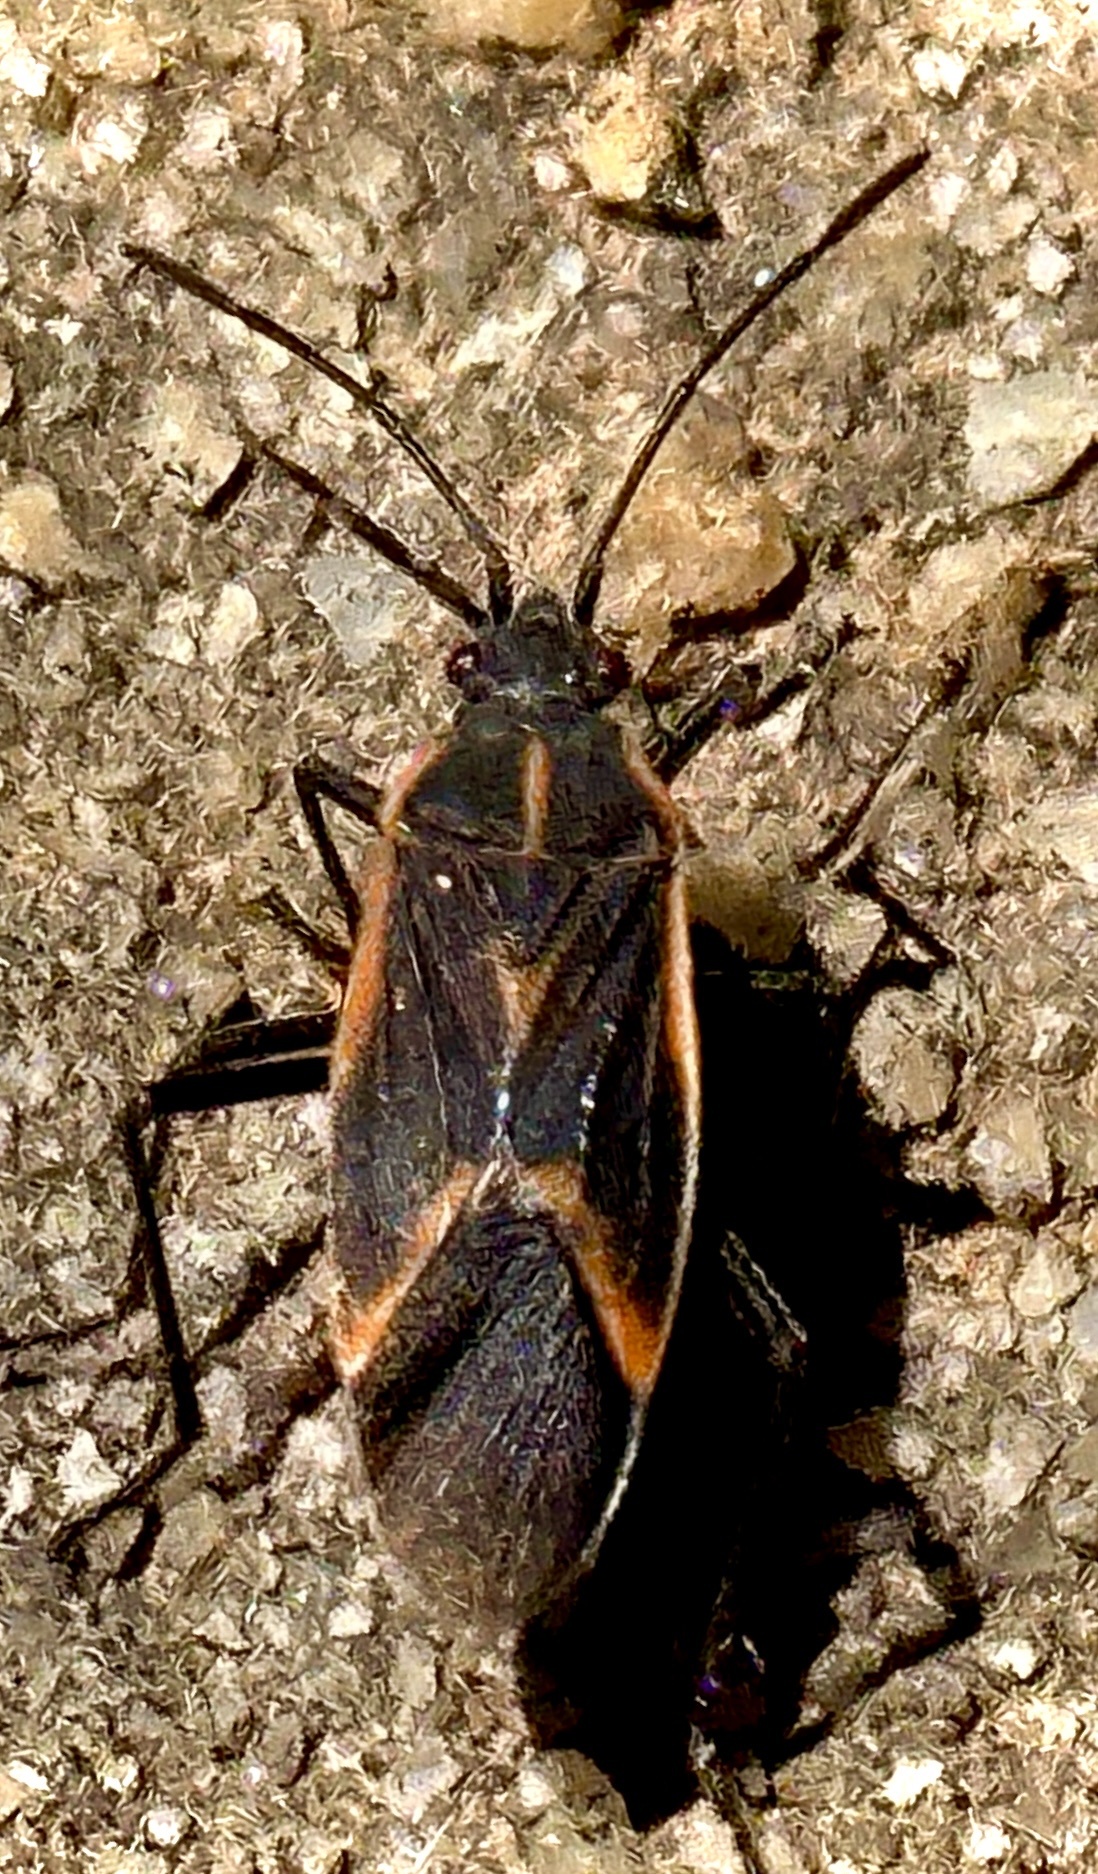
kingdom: Animalia
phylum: Arthropoda
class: Insecta
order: Hemiptera
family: Rhopalidae
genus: Boisea
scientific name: Boisea trivittata
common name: Boxelder bug
